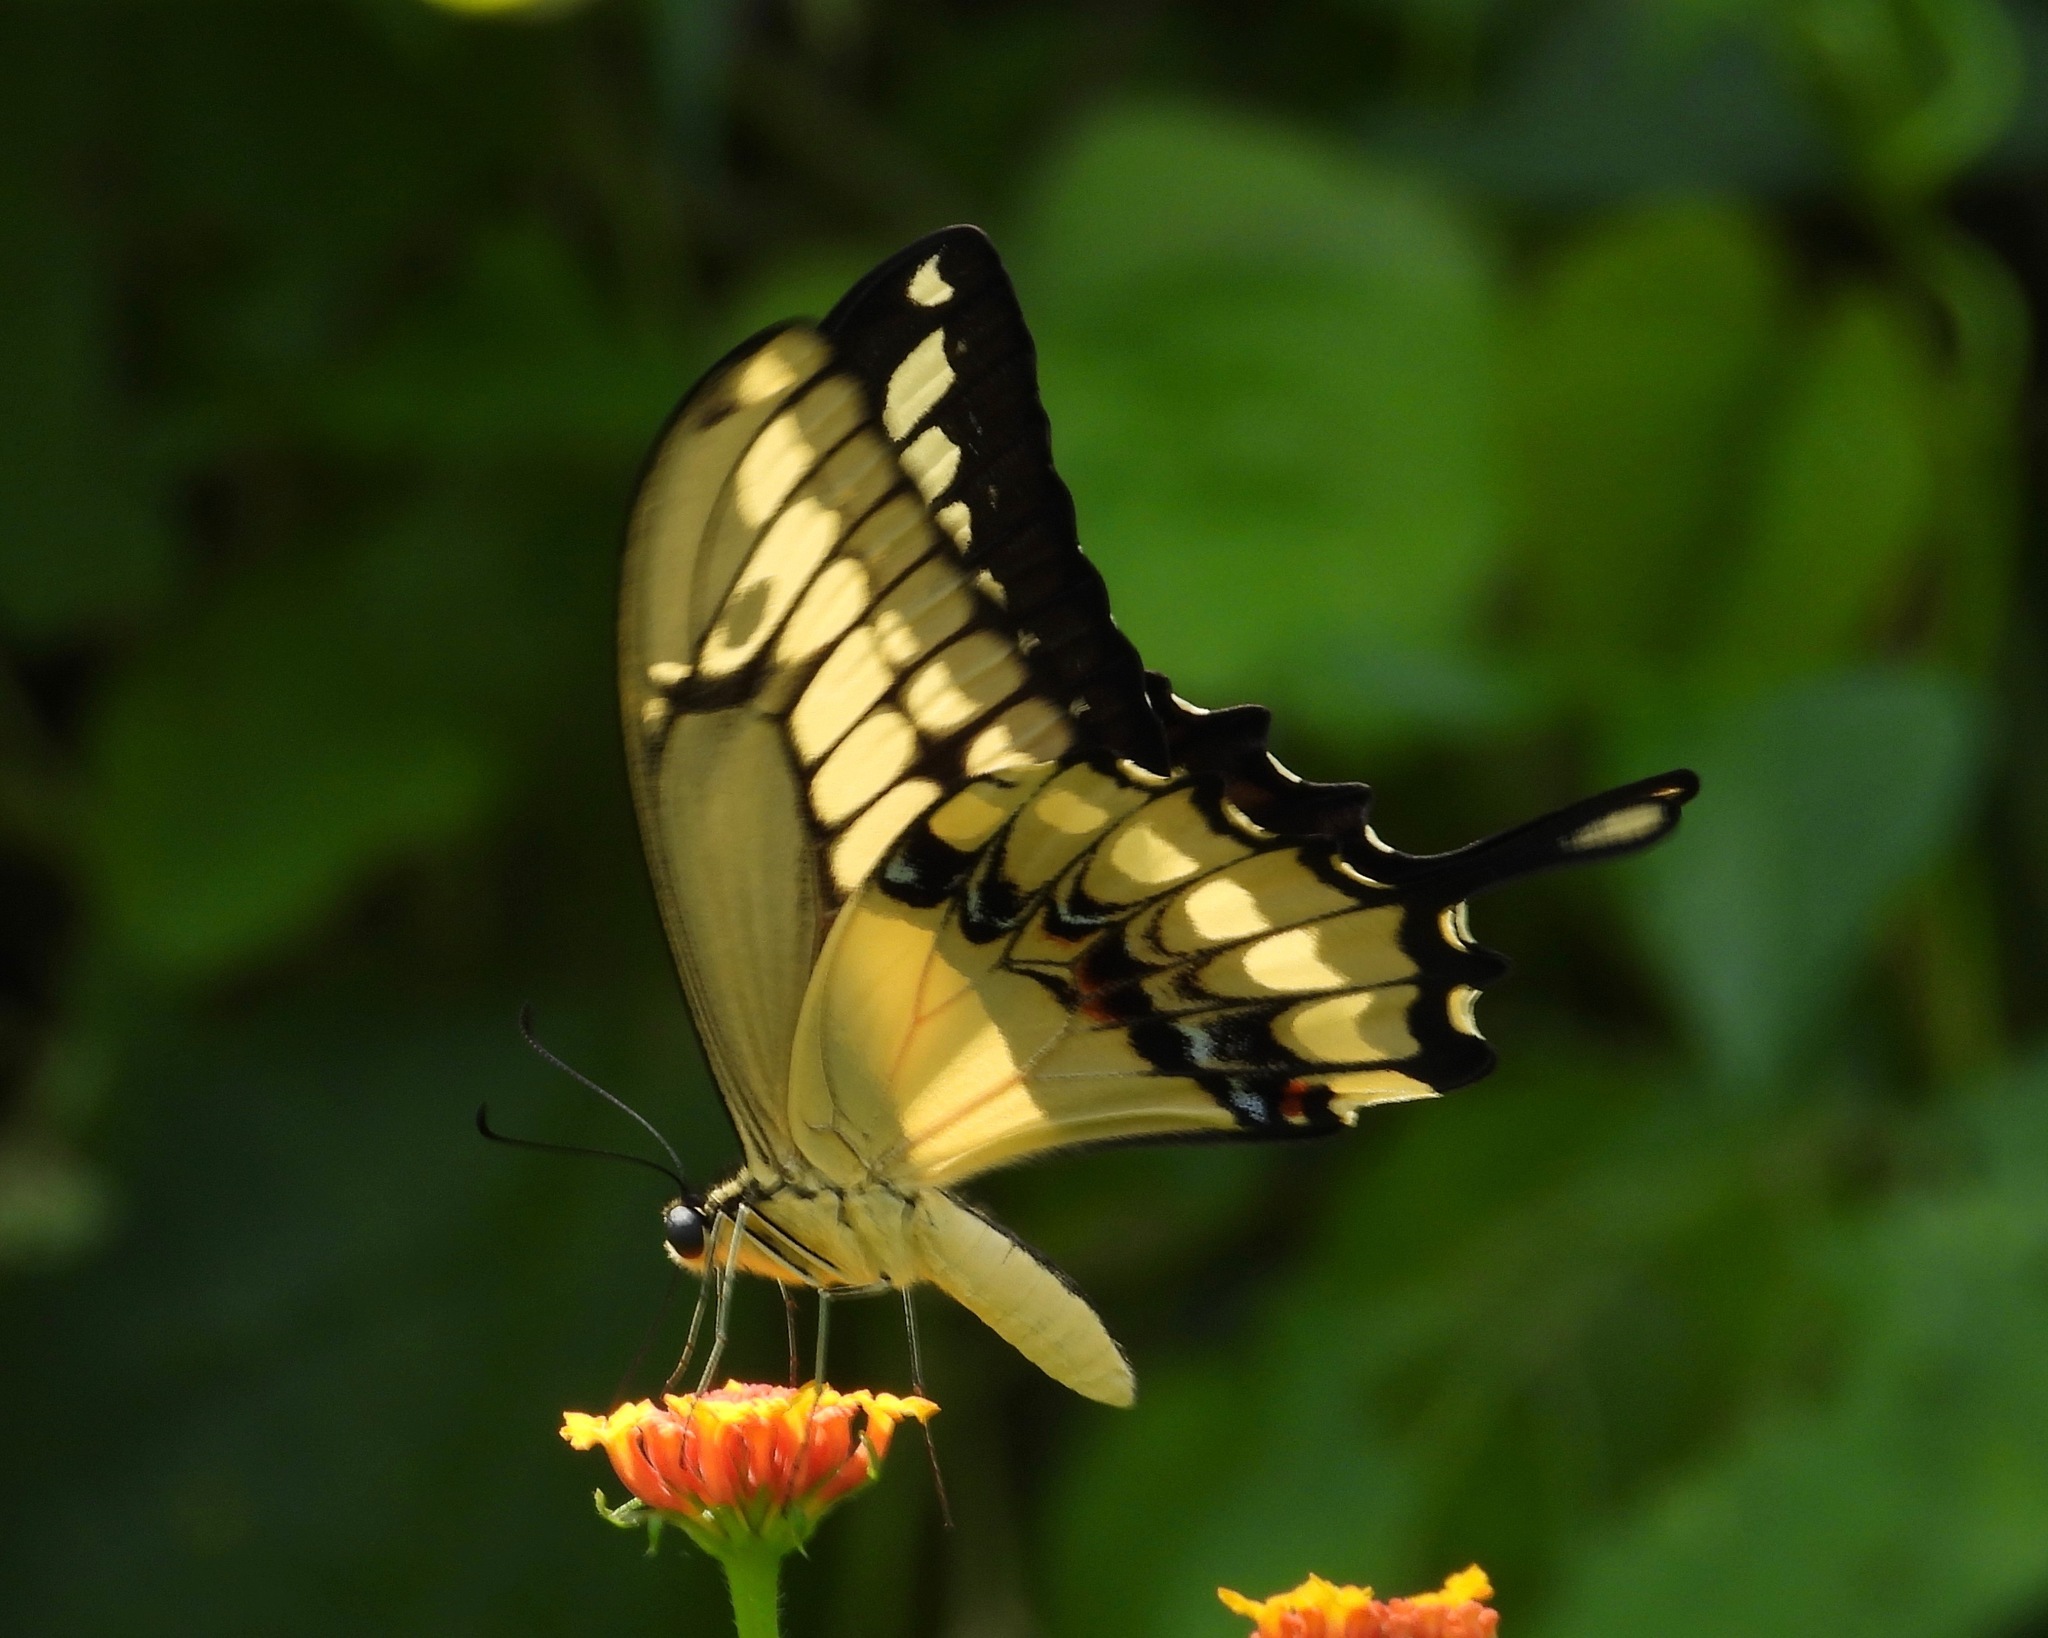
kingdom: Animalia
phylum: Arthropoda
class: Insecta
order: Lepidoptera
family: Papilionidae
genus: Papilio
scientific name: Papilio thoas
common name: King swallowtail
